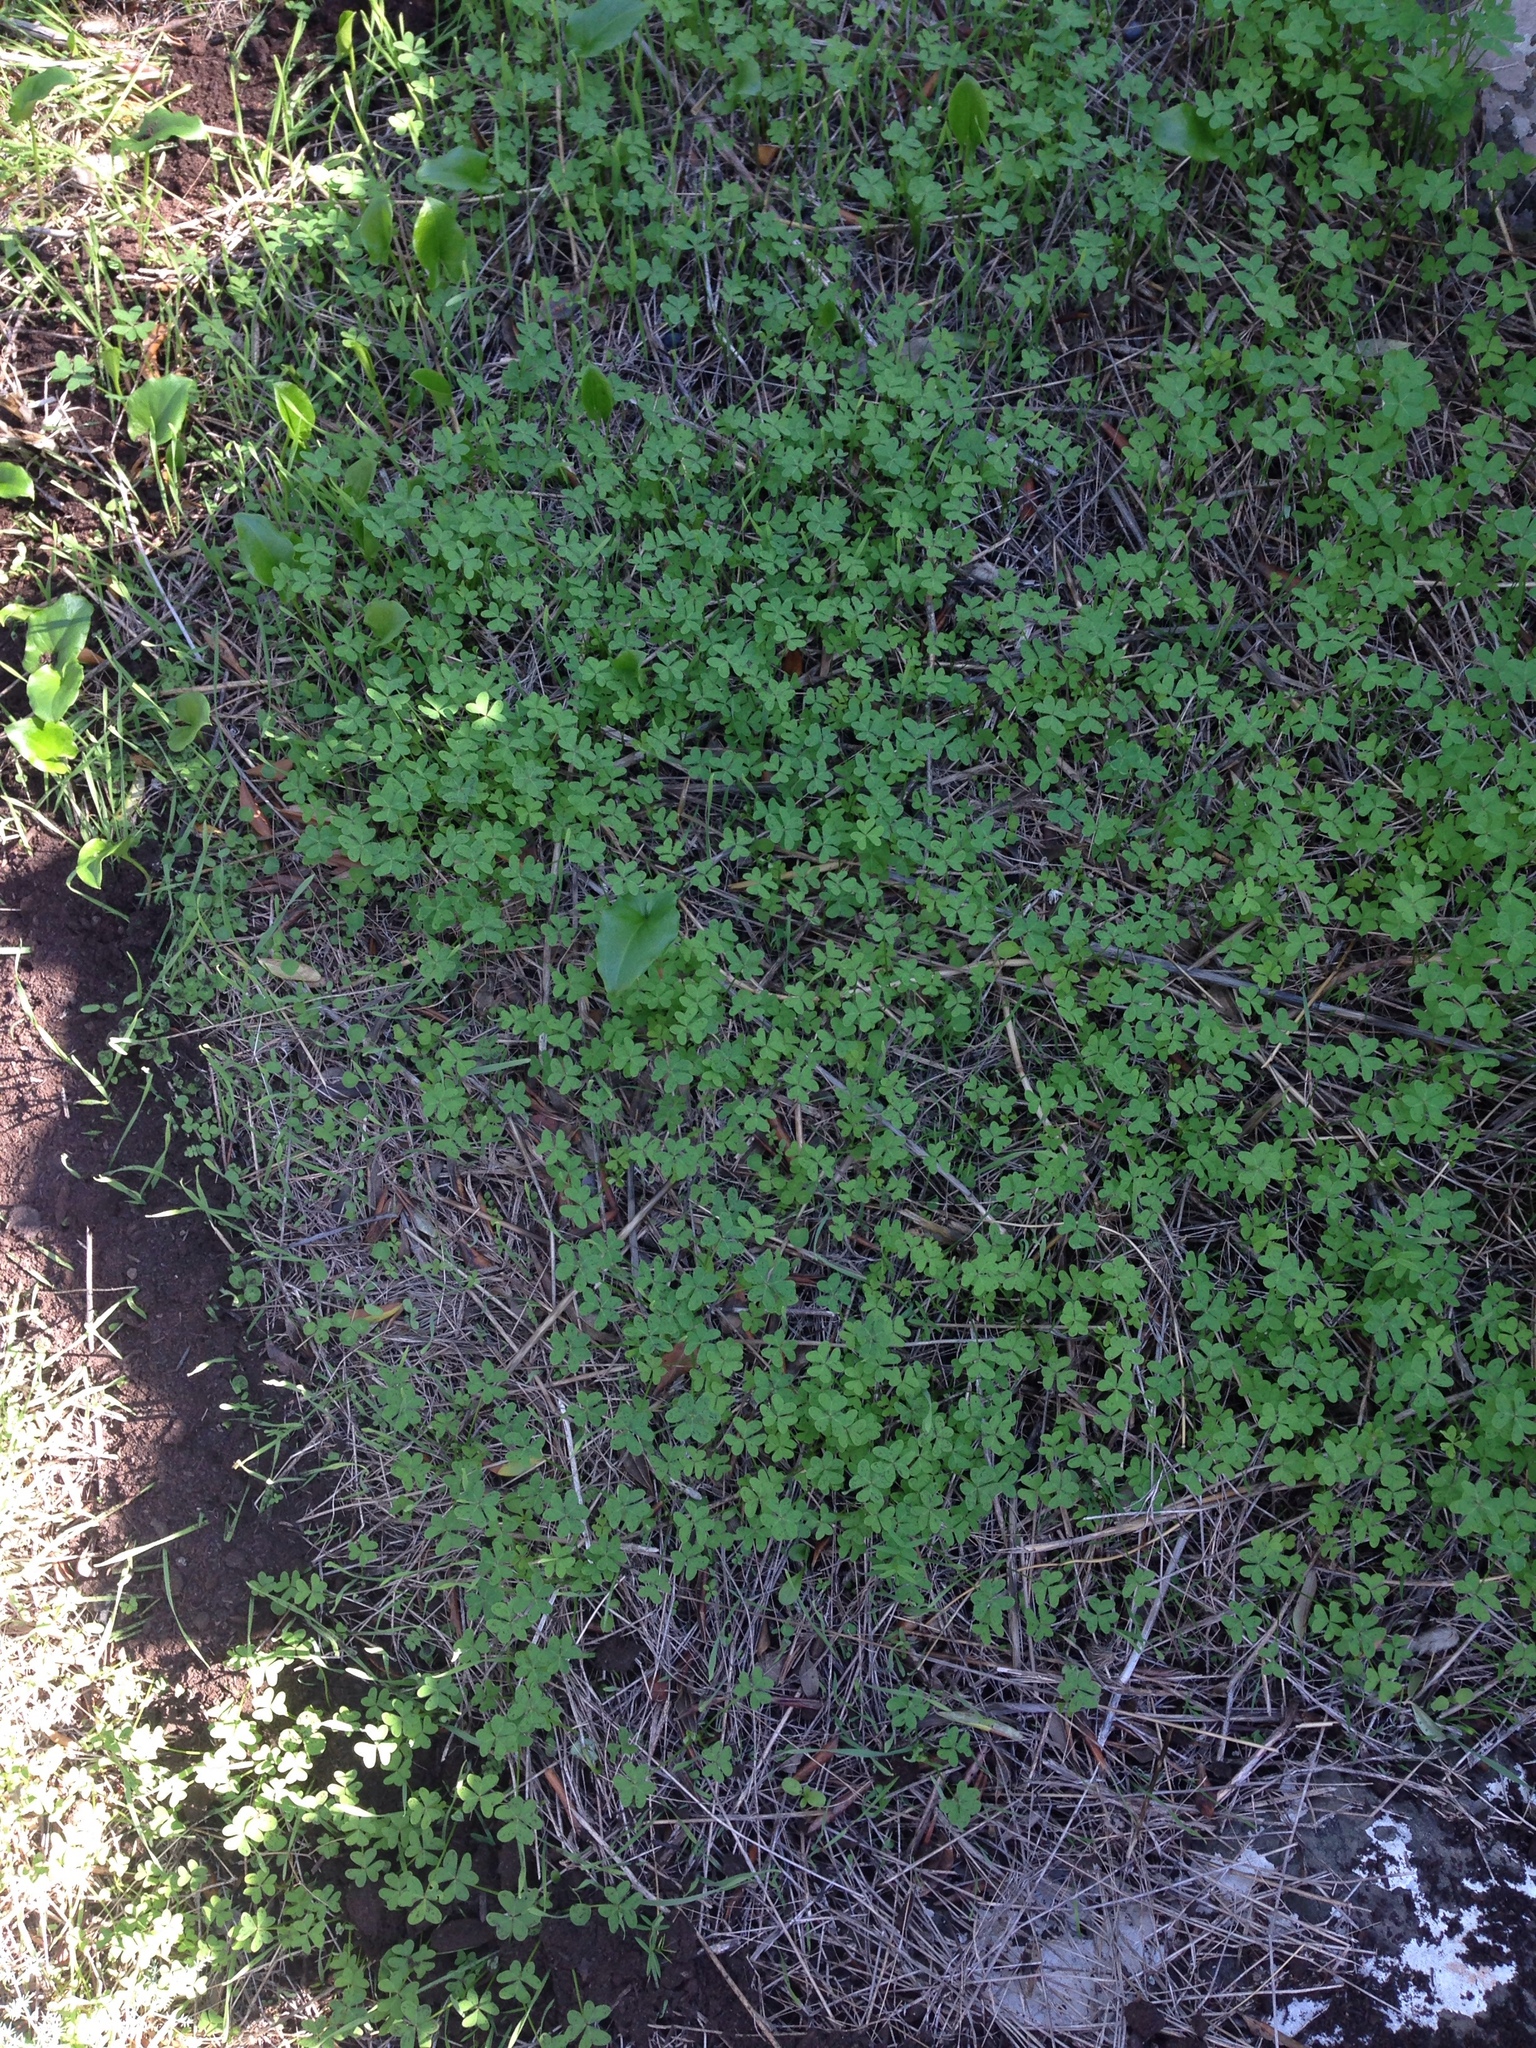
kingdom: Plantae
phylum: Tracheophyta
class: Magnoliopsida
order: Oxalidales
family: Oxalidaceae
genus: Oxalis
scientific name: Oxalis pes-caprae
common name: Bermuda-buttercup
